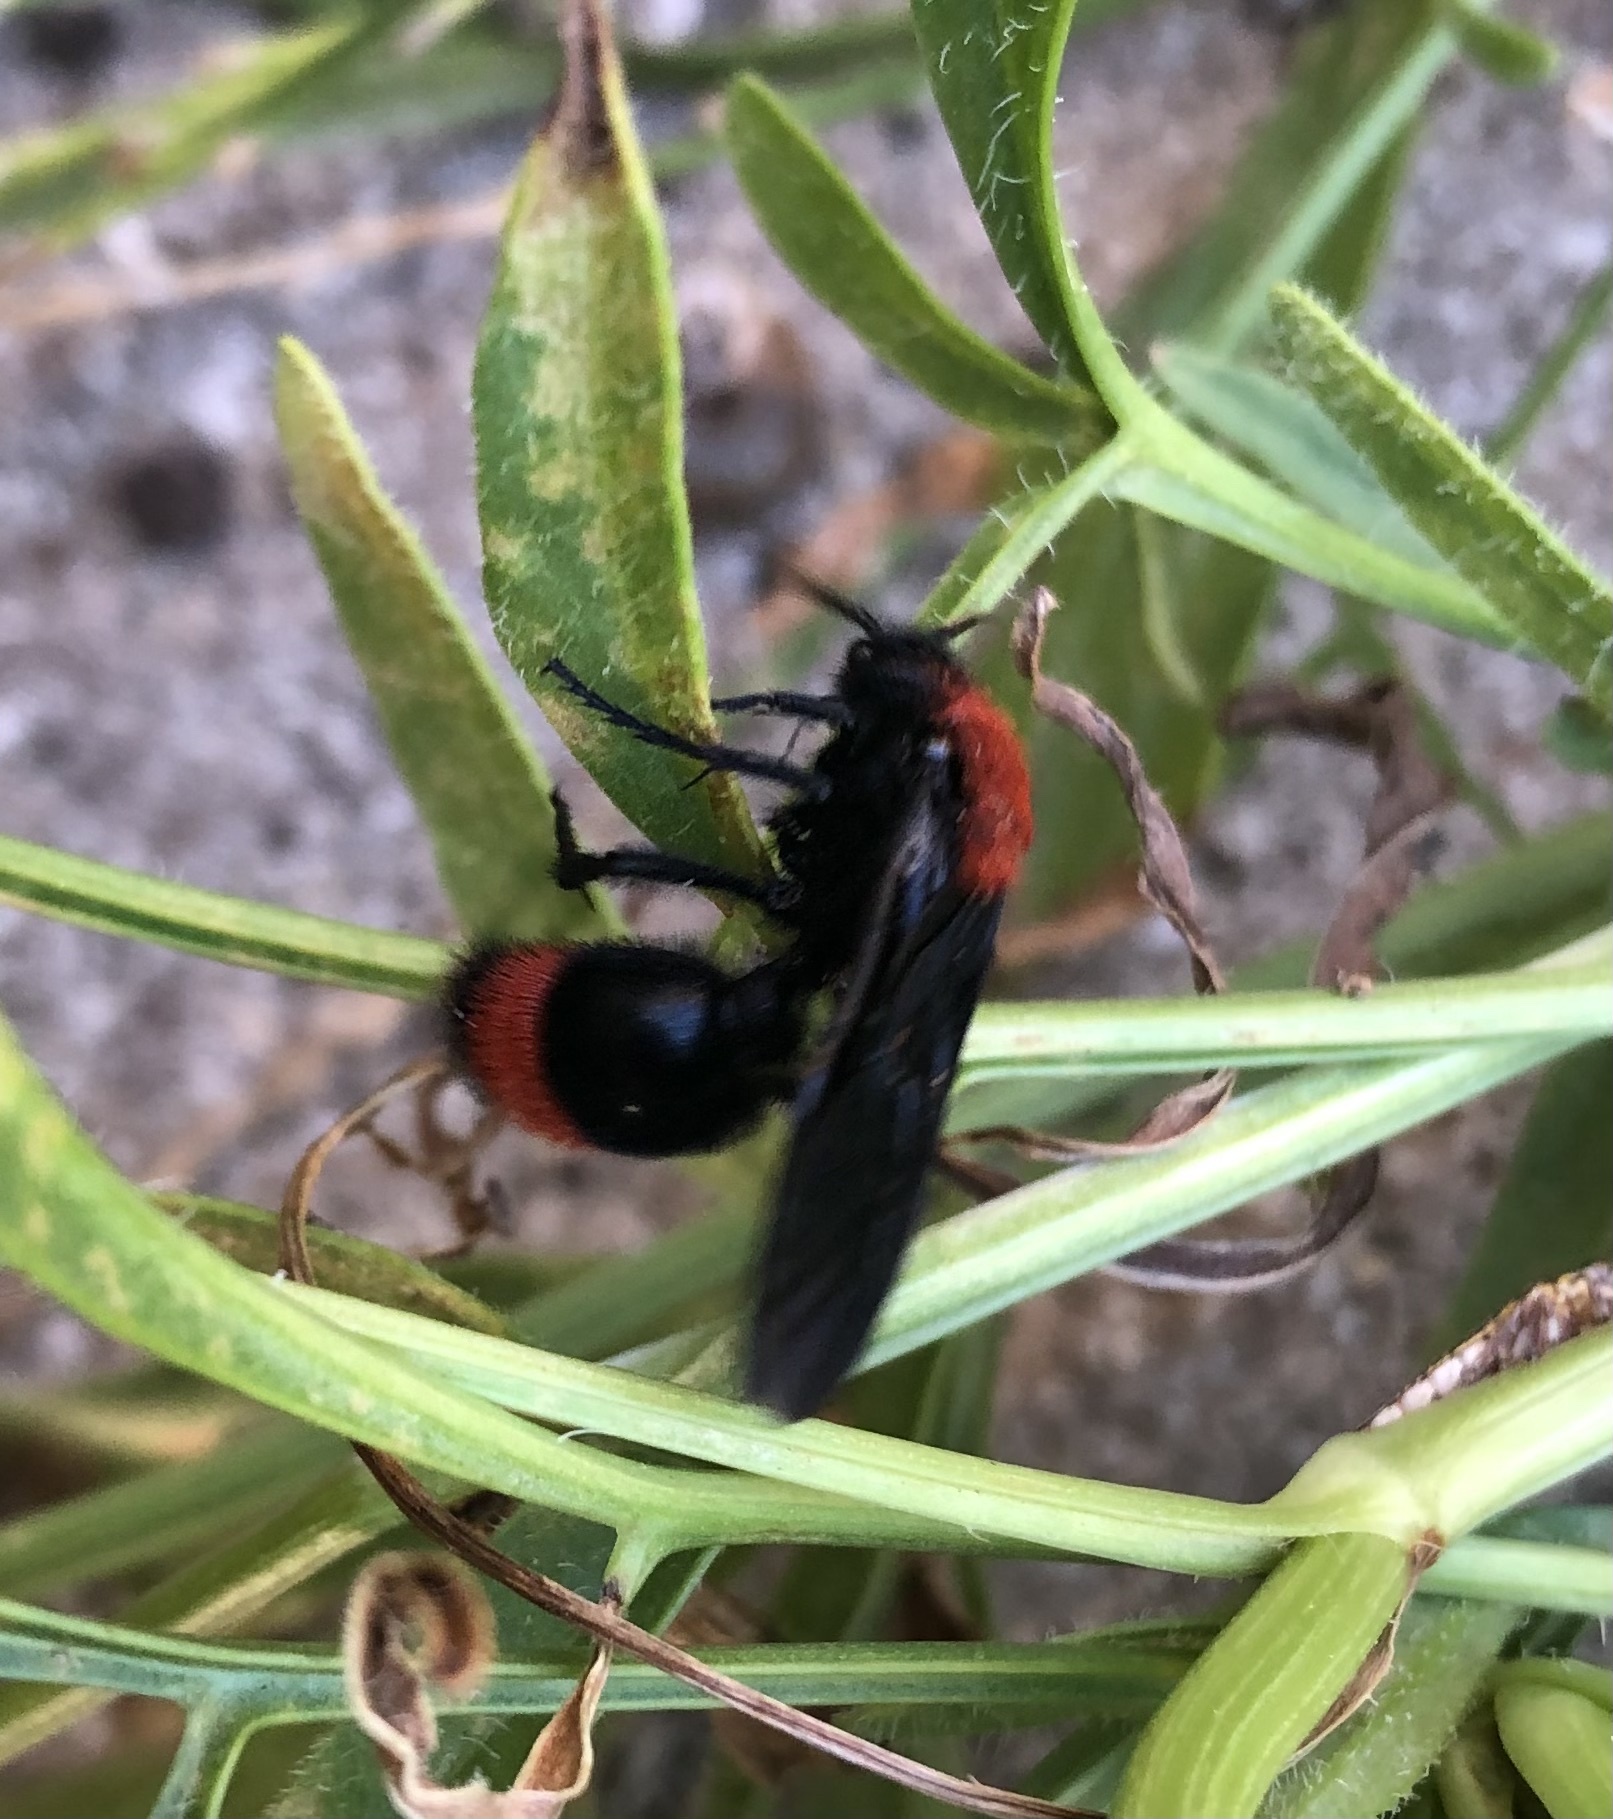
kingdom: Animalia
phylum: Arthropoda
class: Insecta
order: Hymenoptera
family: Mutillidae
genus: Dasymutilla
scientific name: Dasymutilla occidentalis
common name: Common eastern velvet ant
